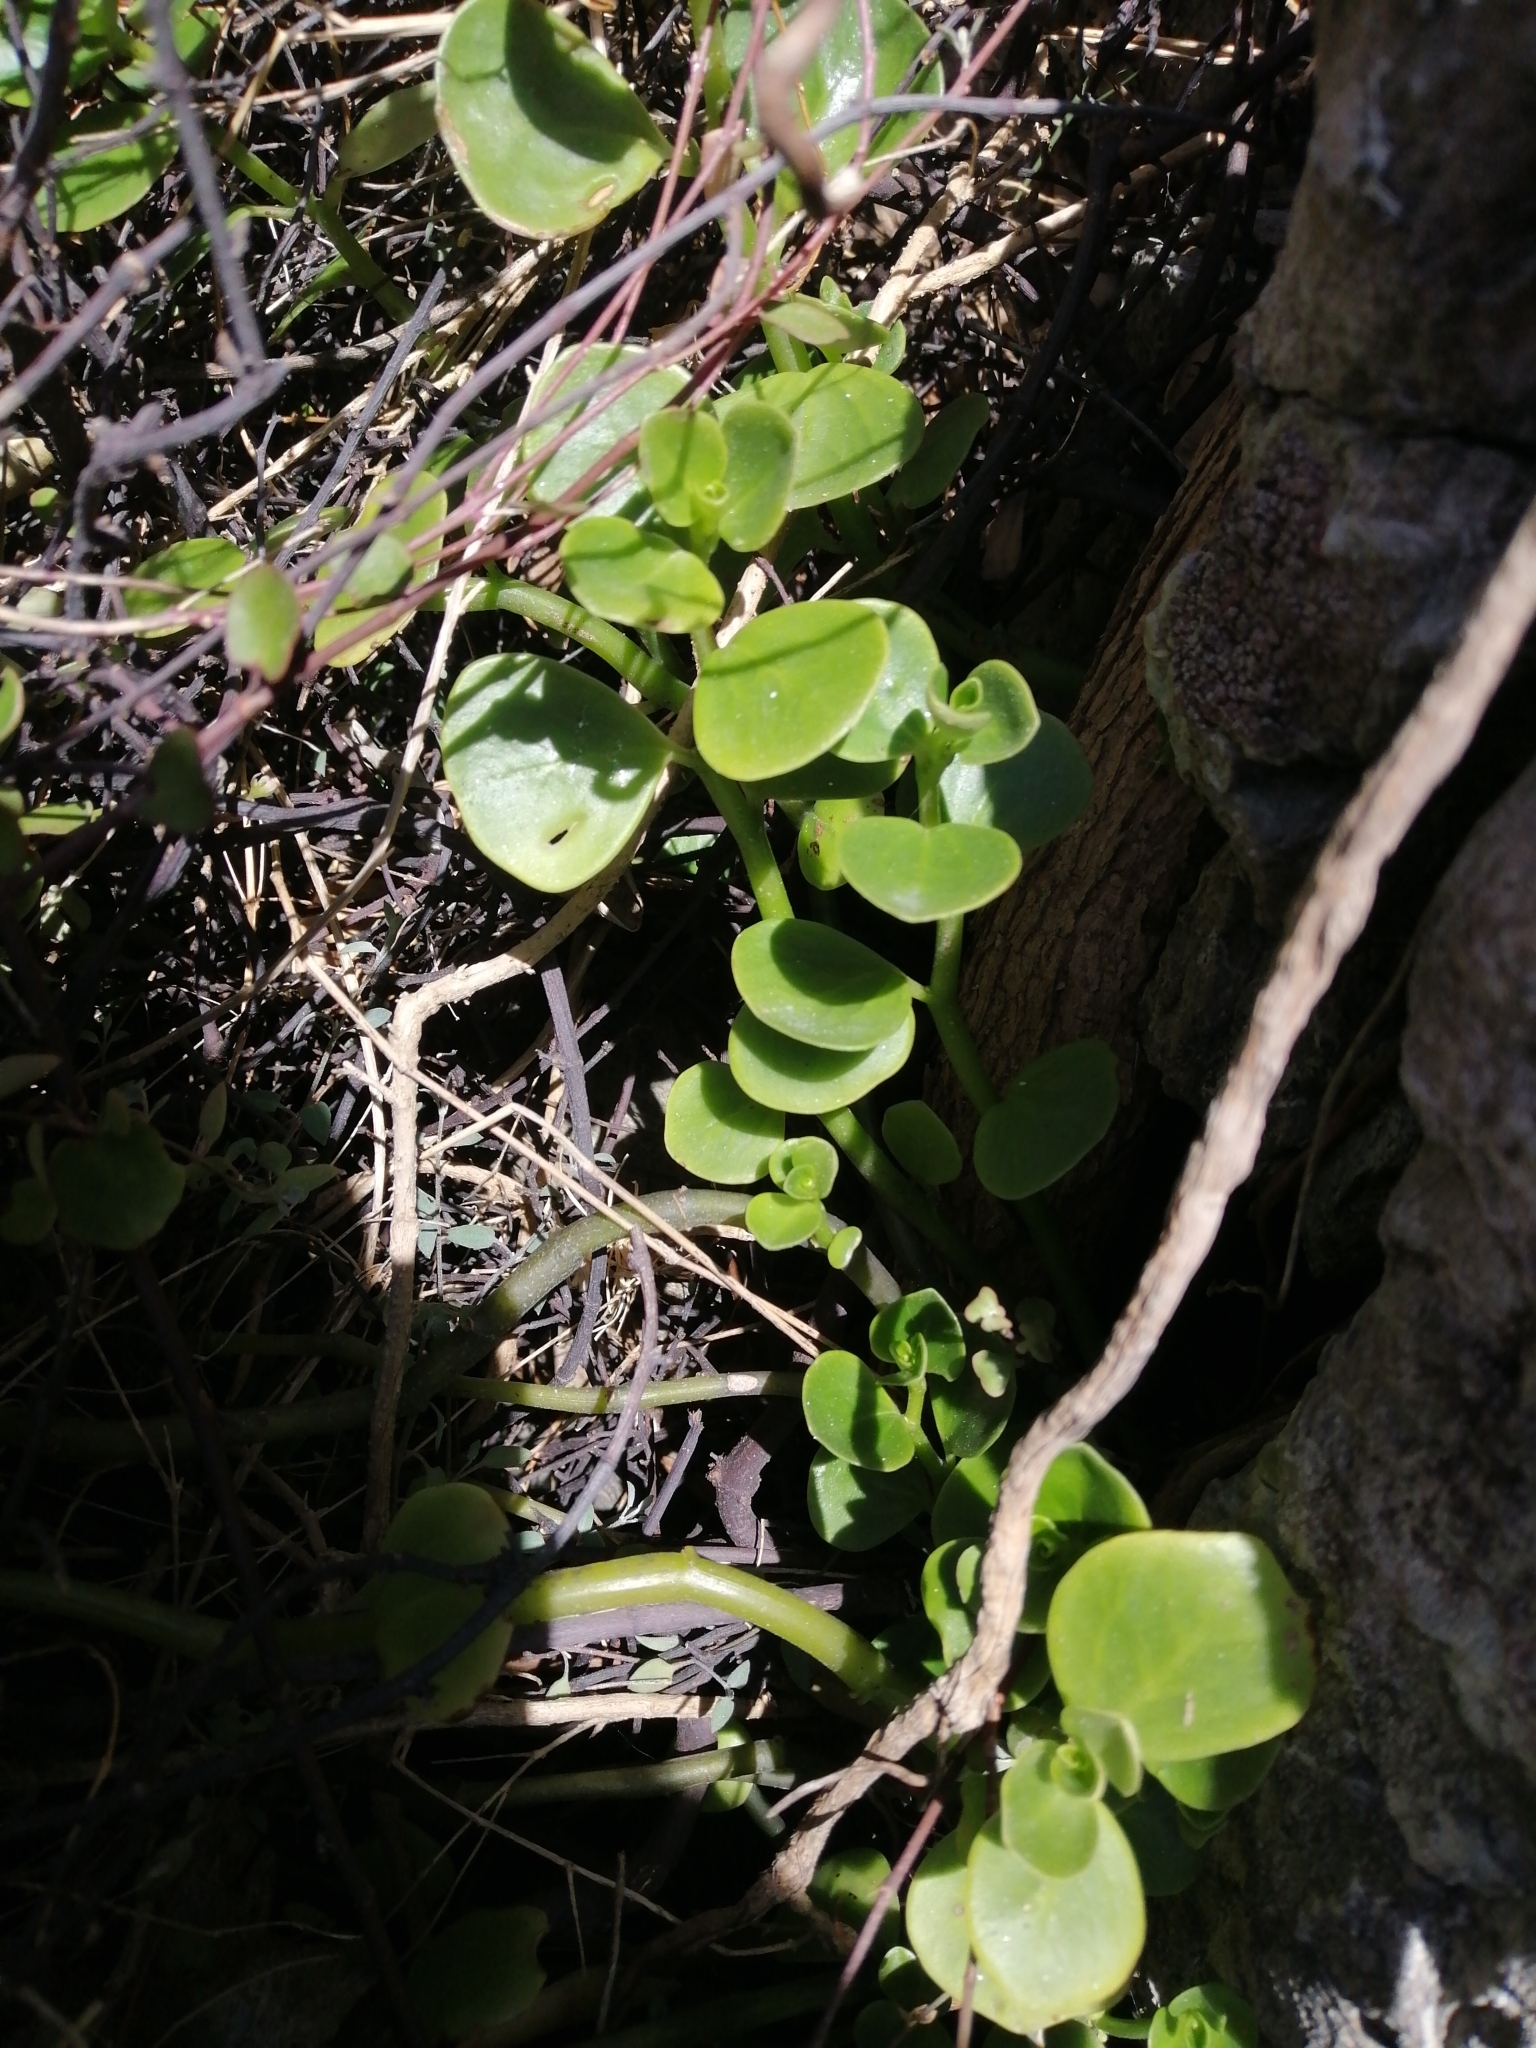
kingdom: Plantae
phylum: Tracheophyta
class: Magnoliopsida
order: Piperales
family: Piperaceae
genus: Peperomia
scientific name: Peperomia urvilleana
